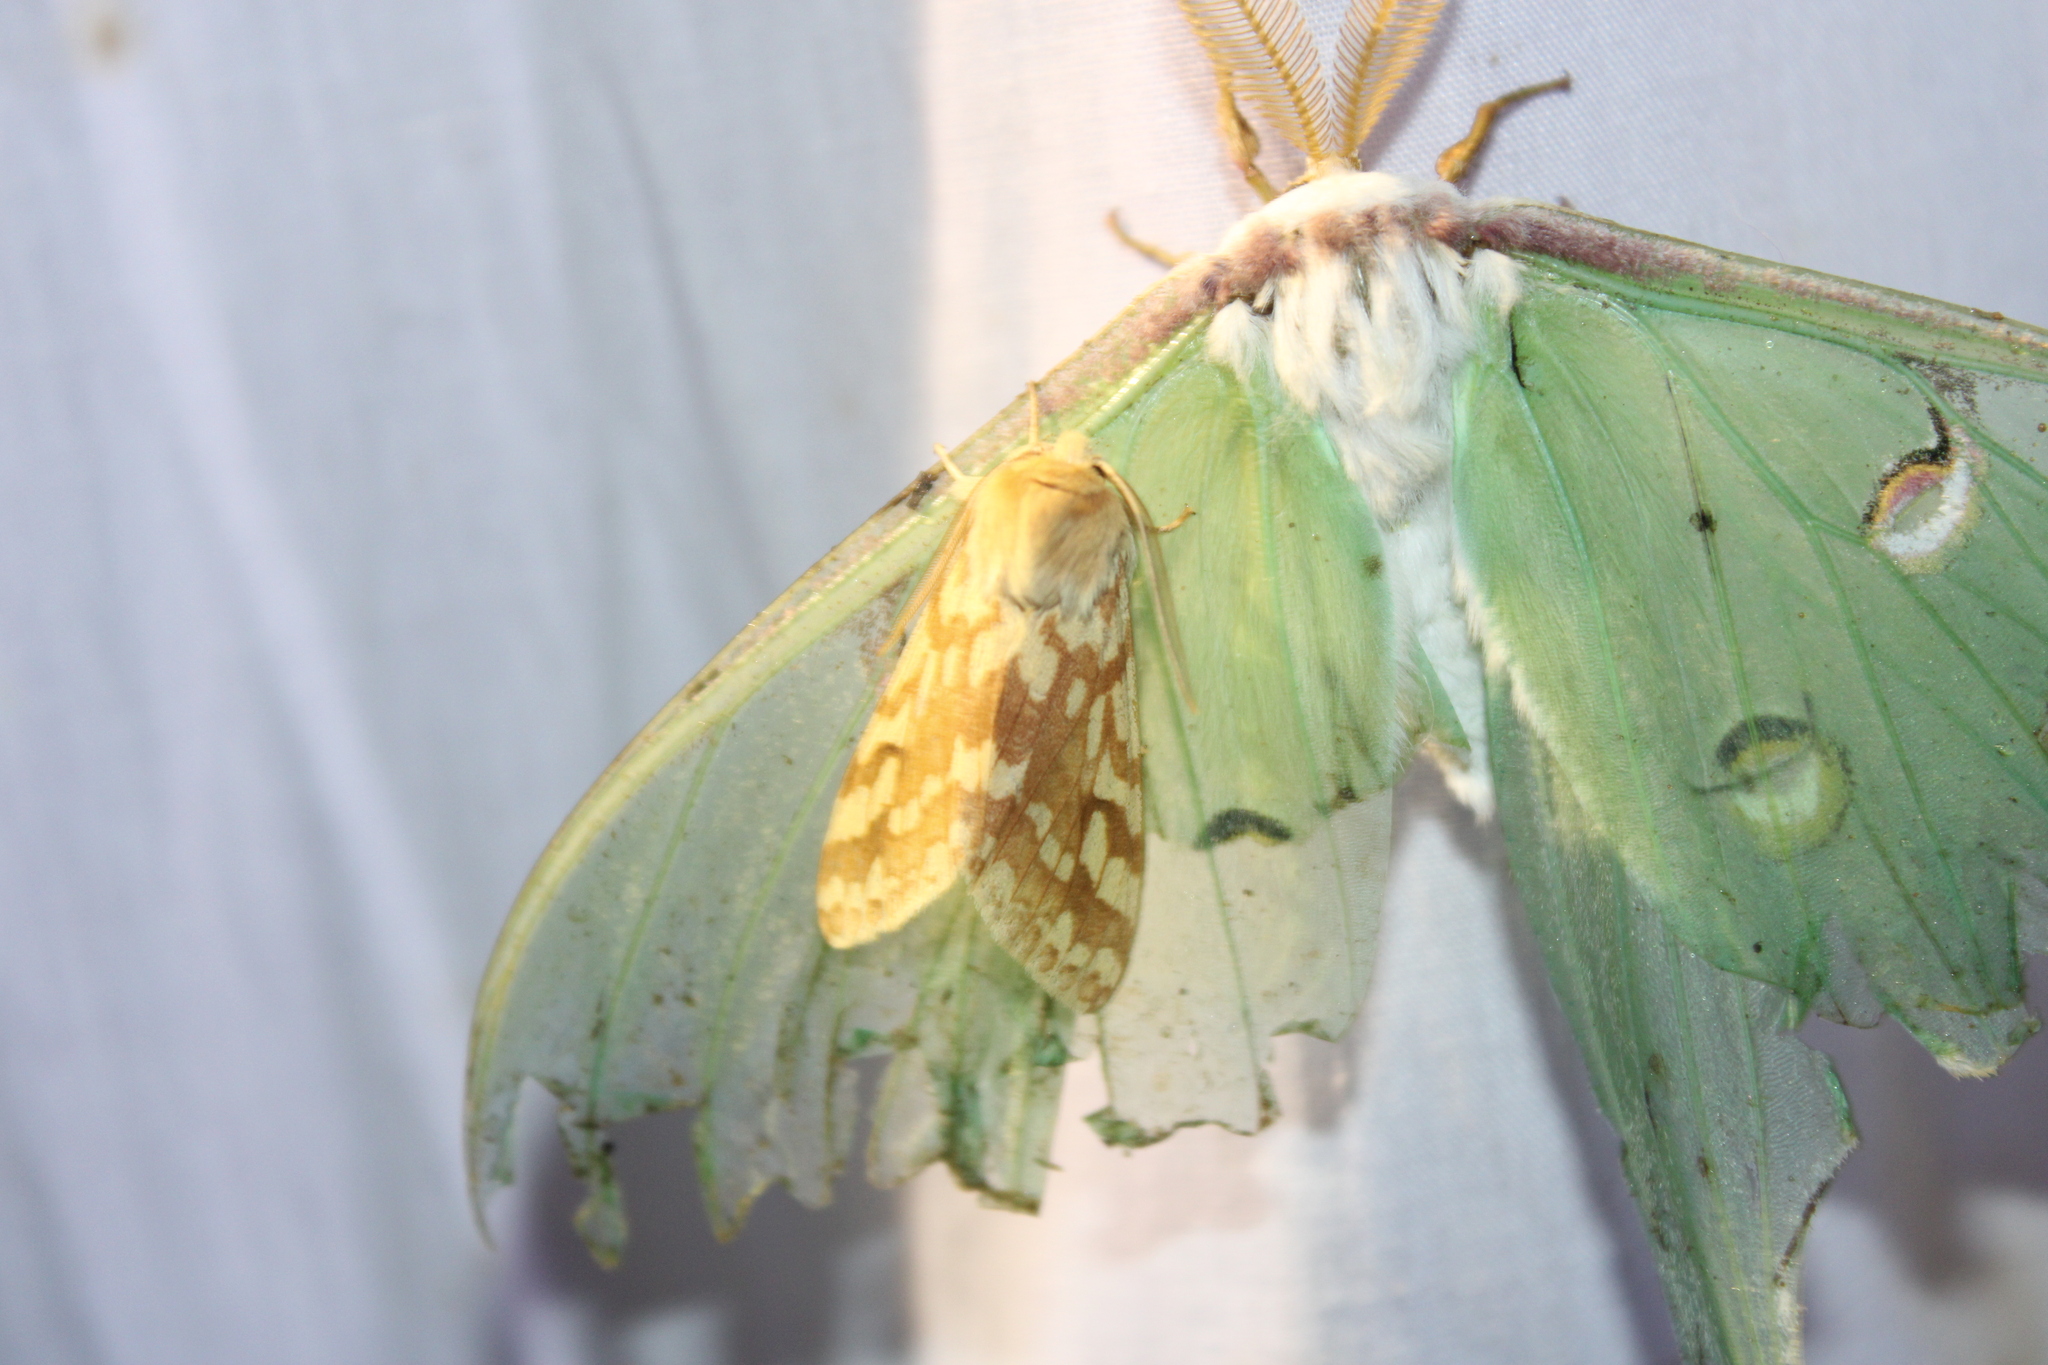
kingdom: Animalia
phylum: Arthropoda
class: Insecta
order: Lepidoptera
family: Erebidae
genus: Lophocampa
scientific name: Lophocampa maculata
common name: Spotted tussock moth
